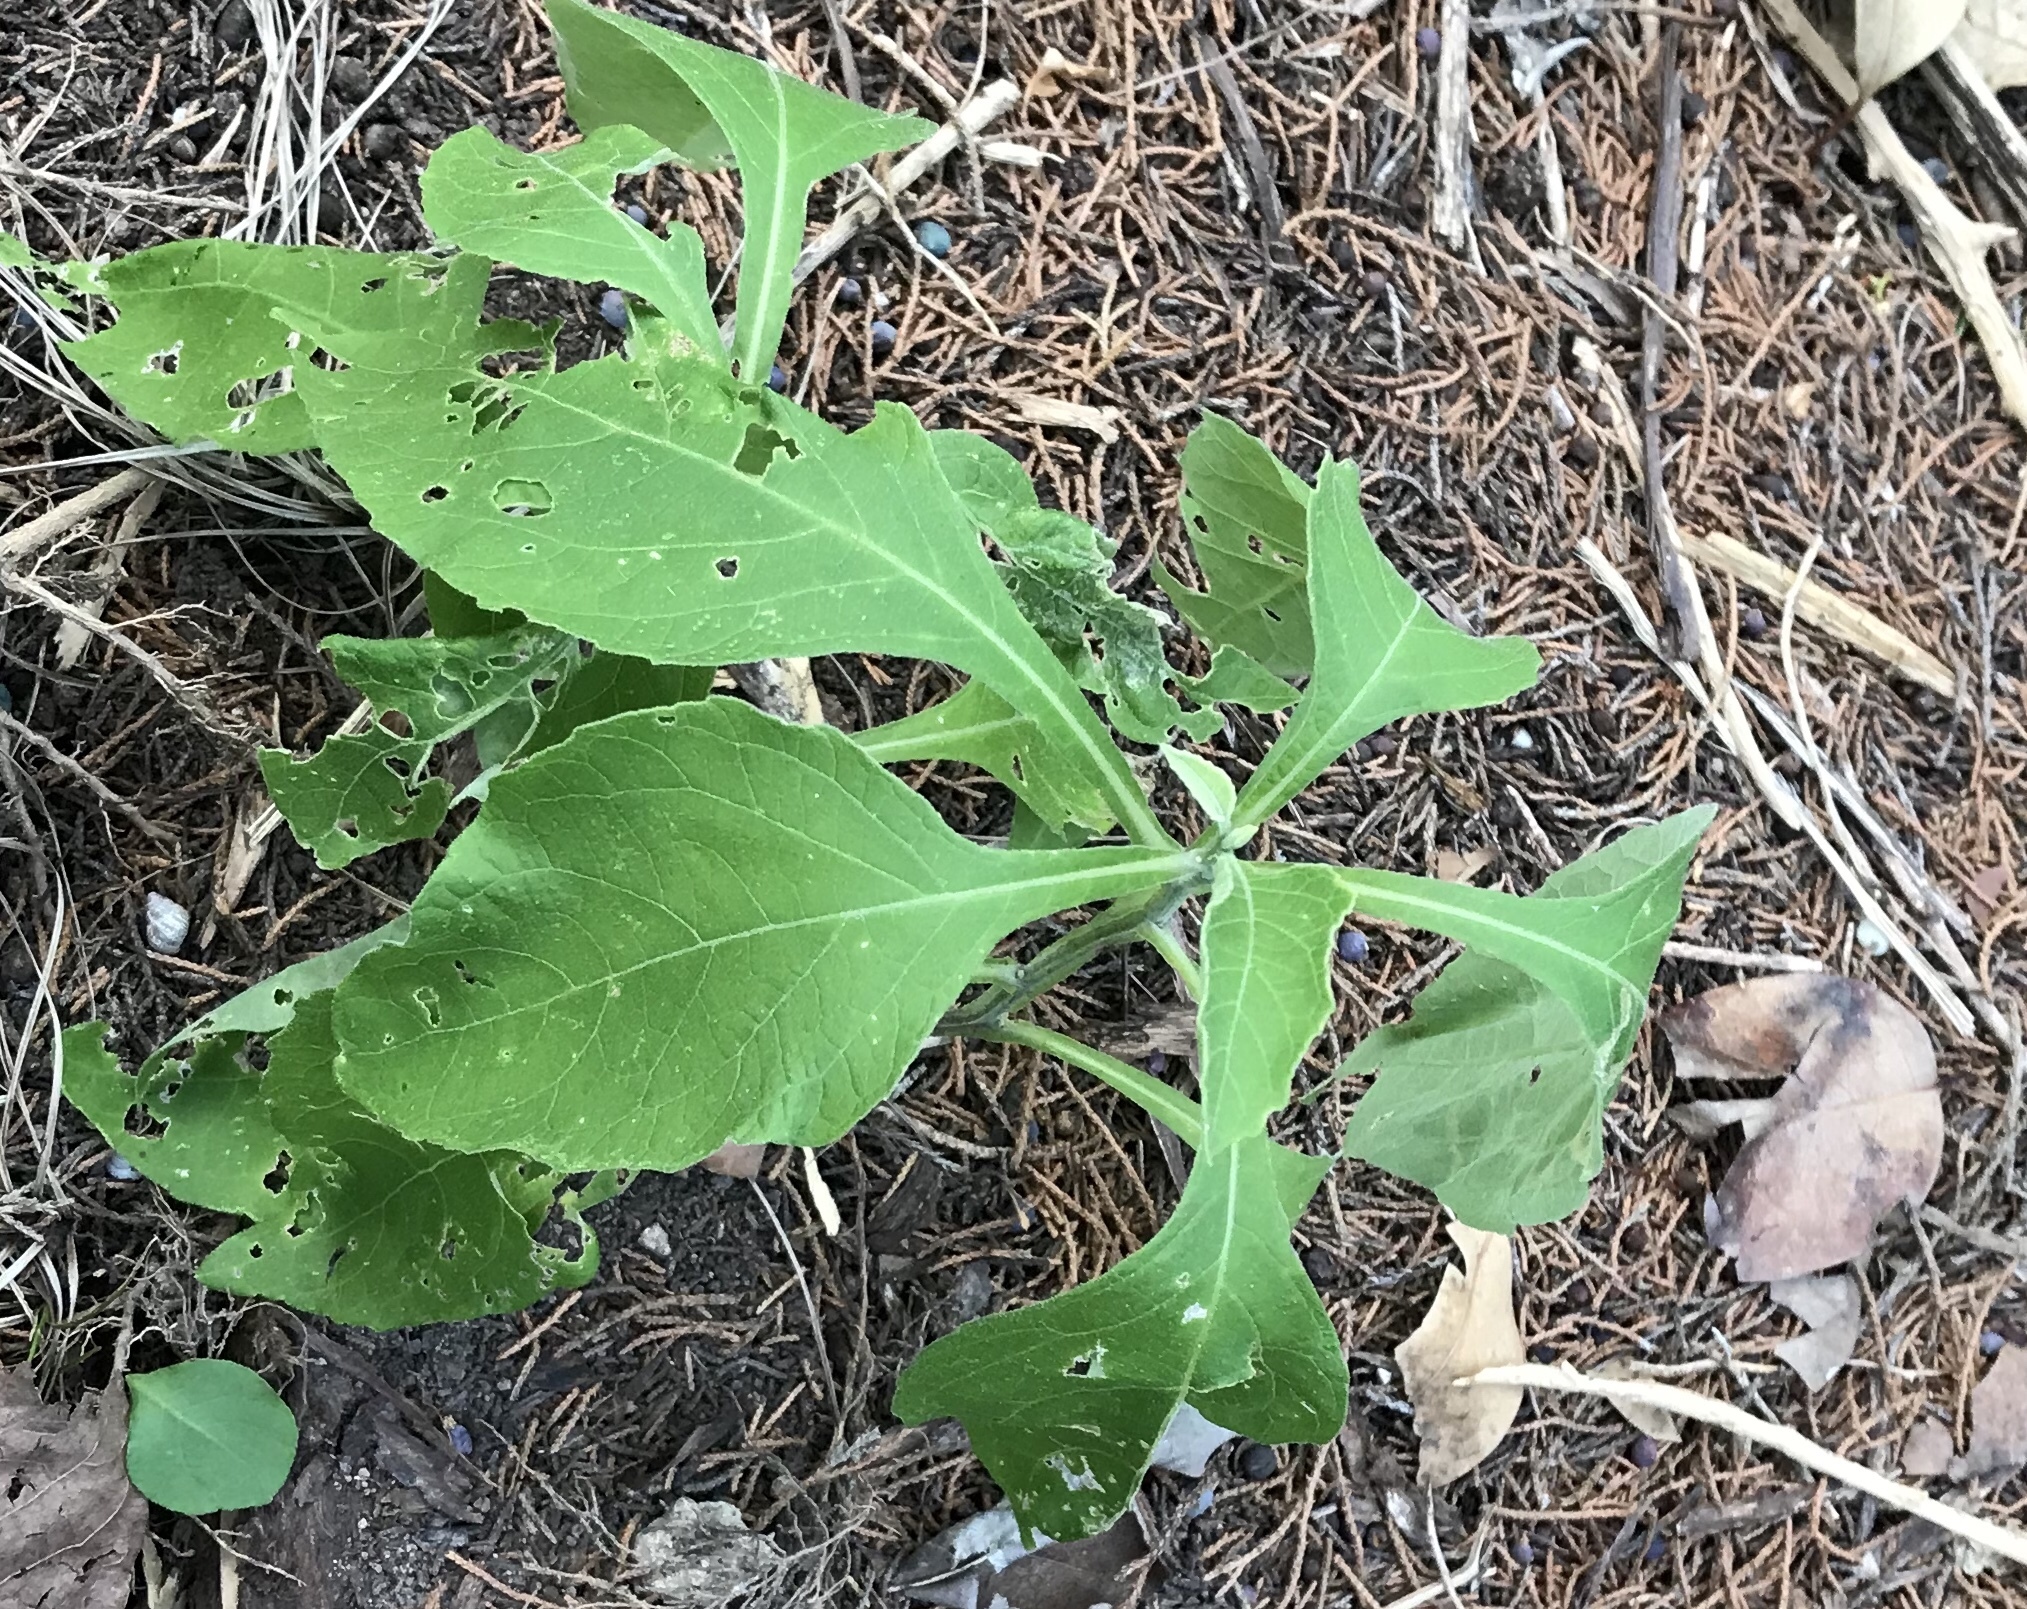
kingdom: Plantae
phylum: Tracheophyta
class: Magnoliopsida
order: Asterales
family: Asteraceae
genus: Verbesina
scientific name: Verbesina virginica
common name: Frostweed
